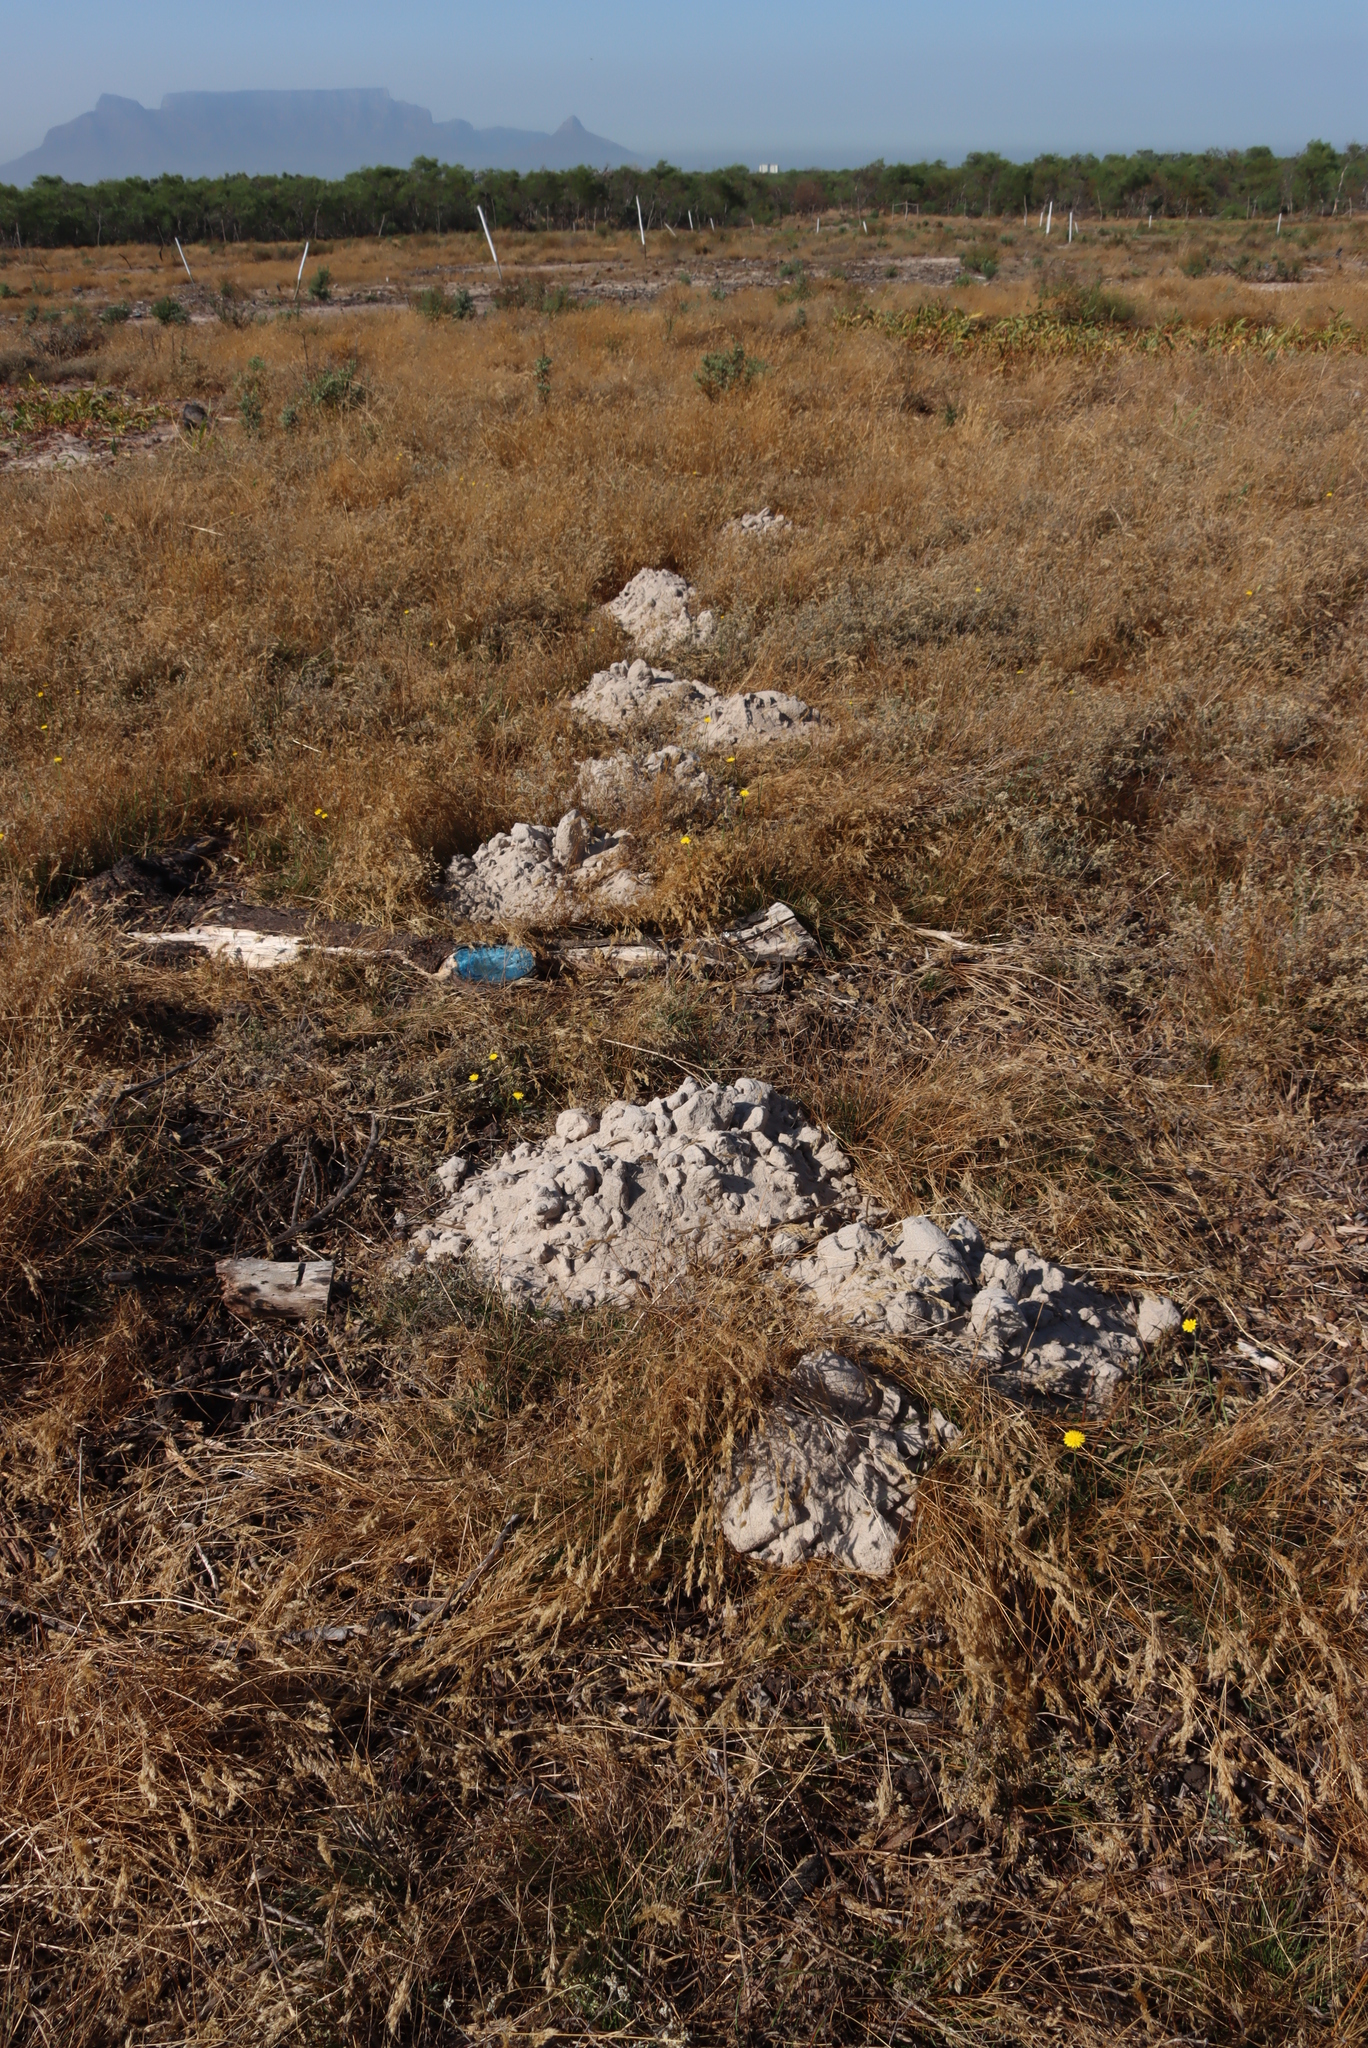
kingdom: Animalia
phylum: Chordata
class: Mammalia
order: Rodentia
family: Bathyergidae
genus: Bathyergus
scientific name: Bathyergus suillus
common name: Cape dune mole rat
